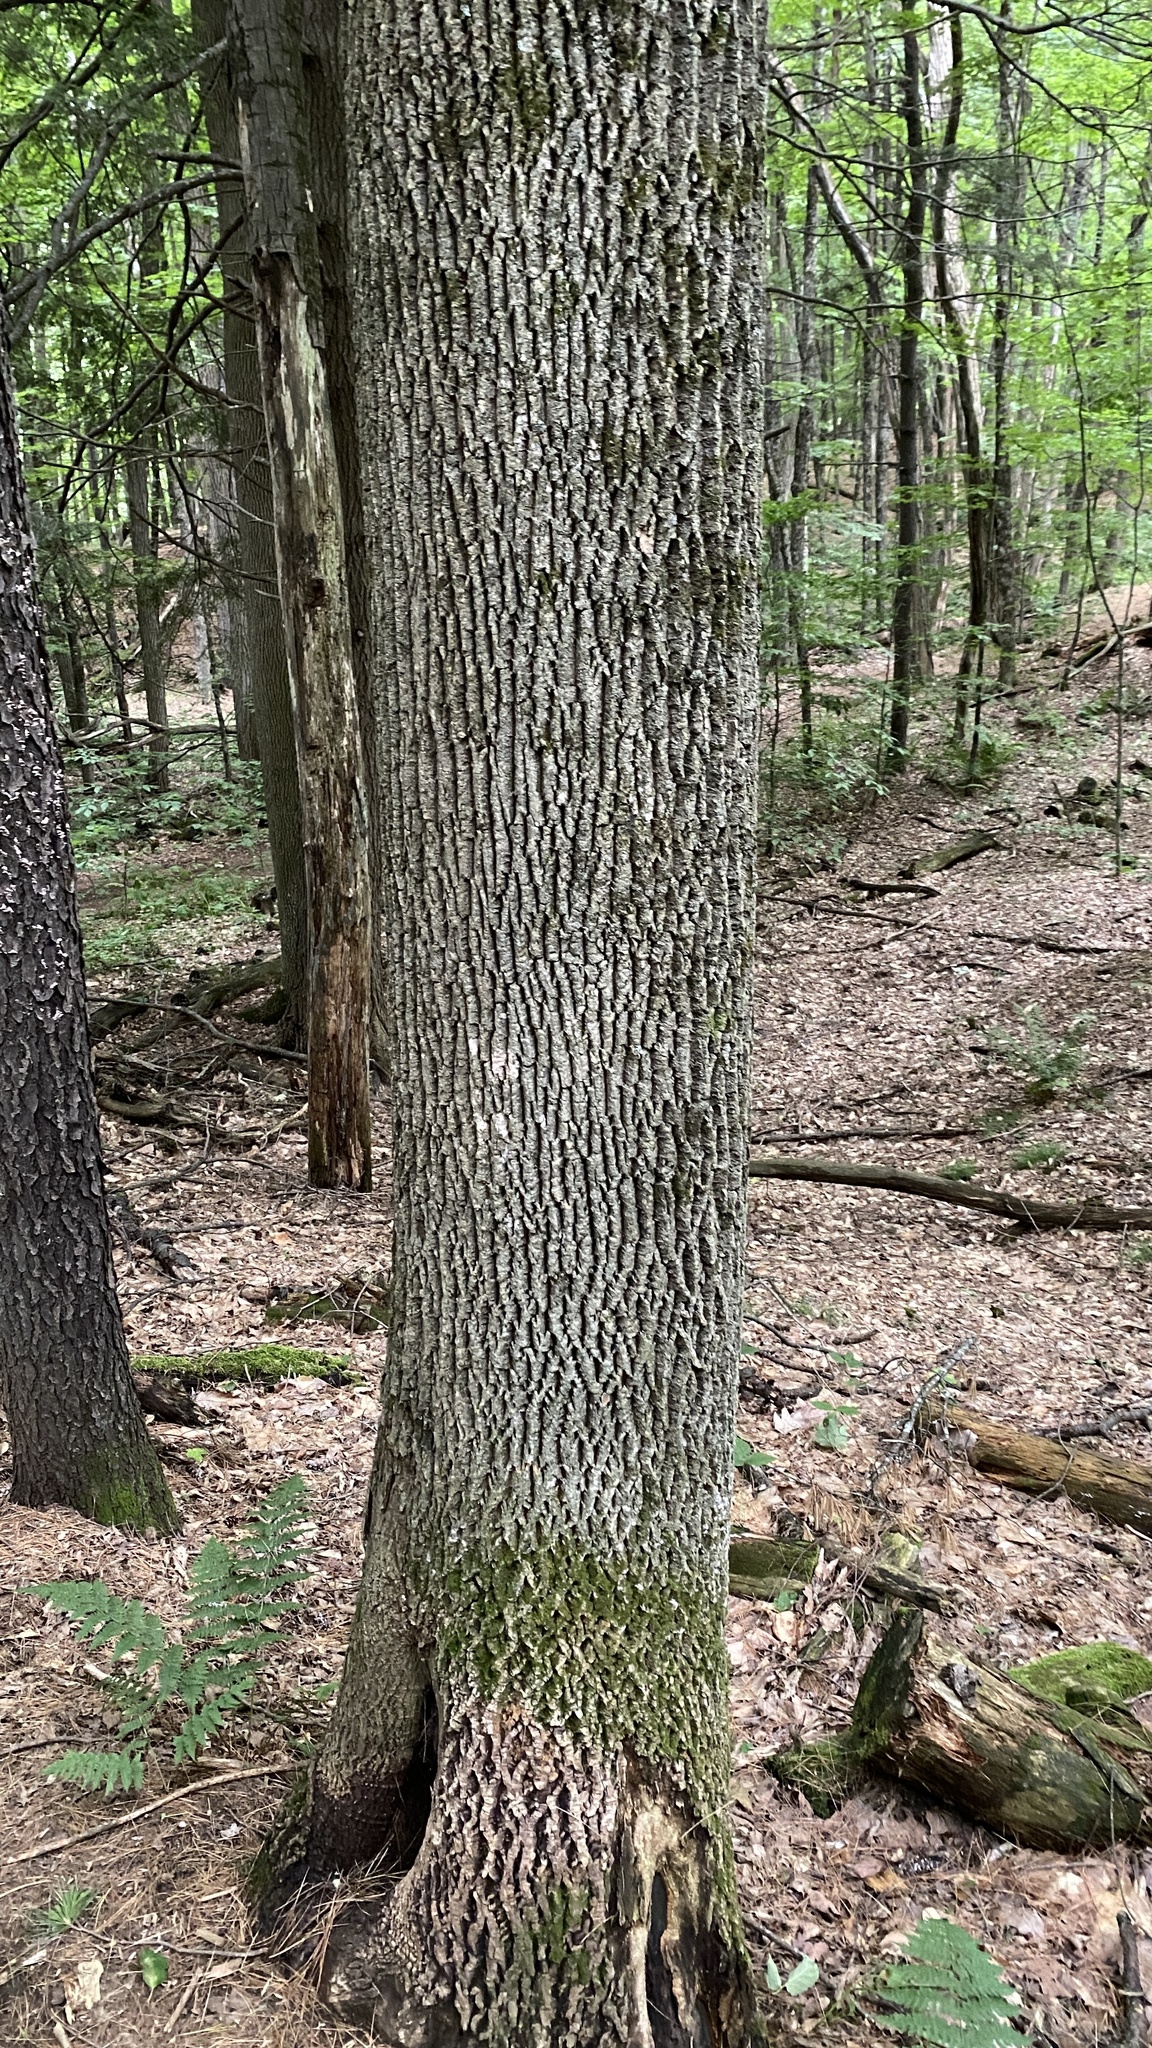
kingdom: Plantae
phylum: Tracheophyta
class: Magnoliopsida
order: Lamiales
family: Oleaceae
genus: Fraxinus
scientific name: Fraxinus americana
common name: White ash
